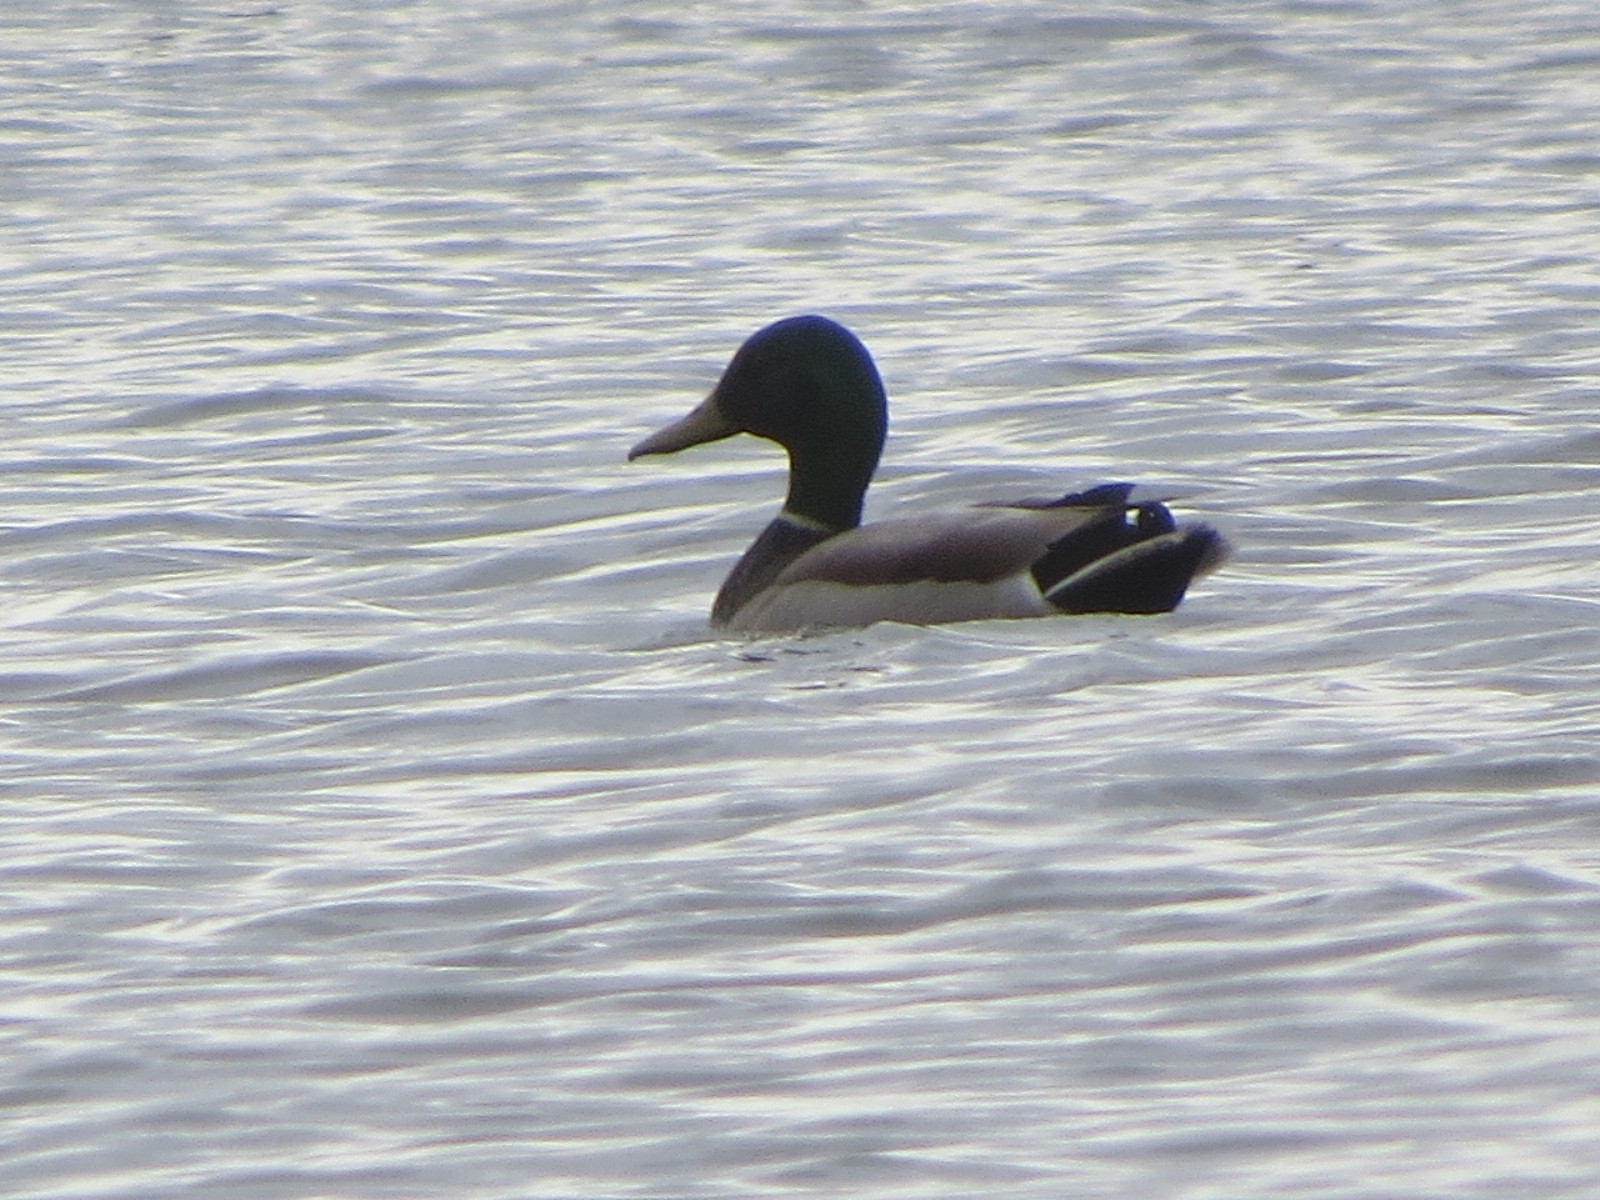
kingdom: Animalia
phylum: Chordata
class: Aves
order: Anseriformes
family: Anatidae
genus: Anas
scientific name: Anas platyrhynchos
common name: Mallard
